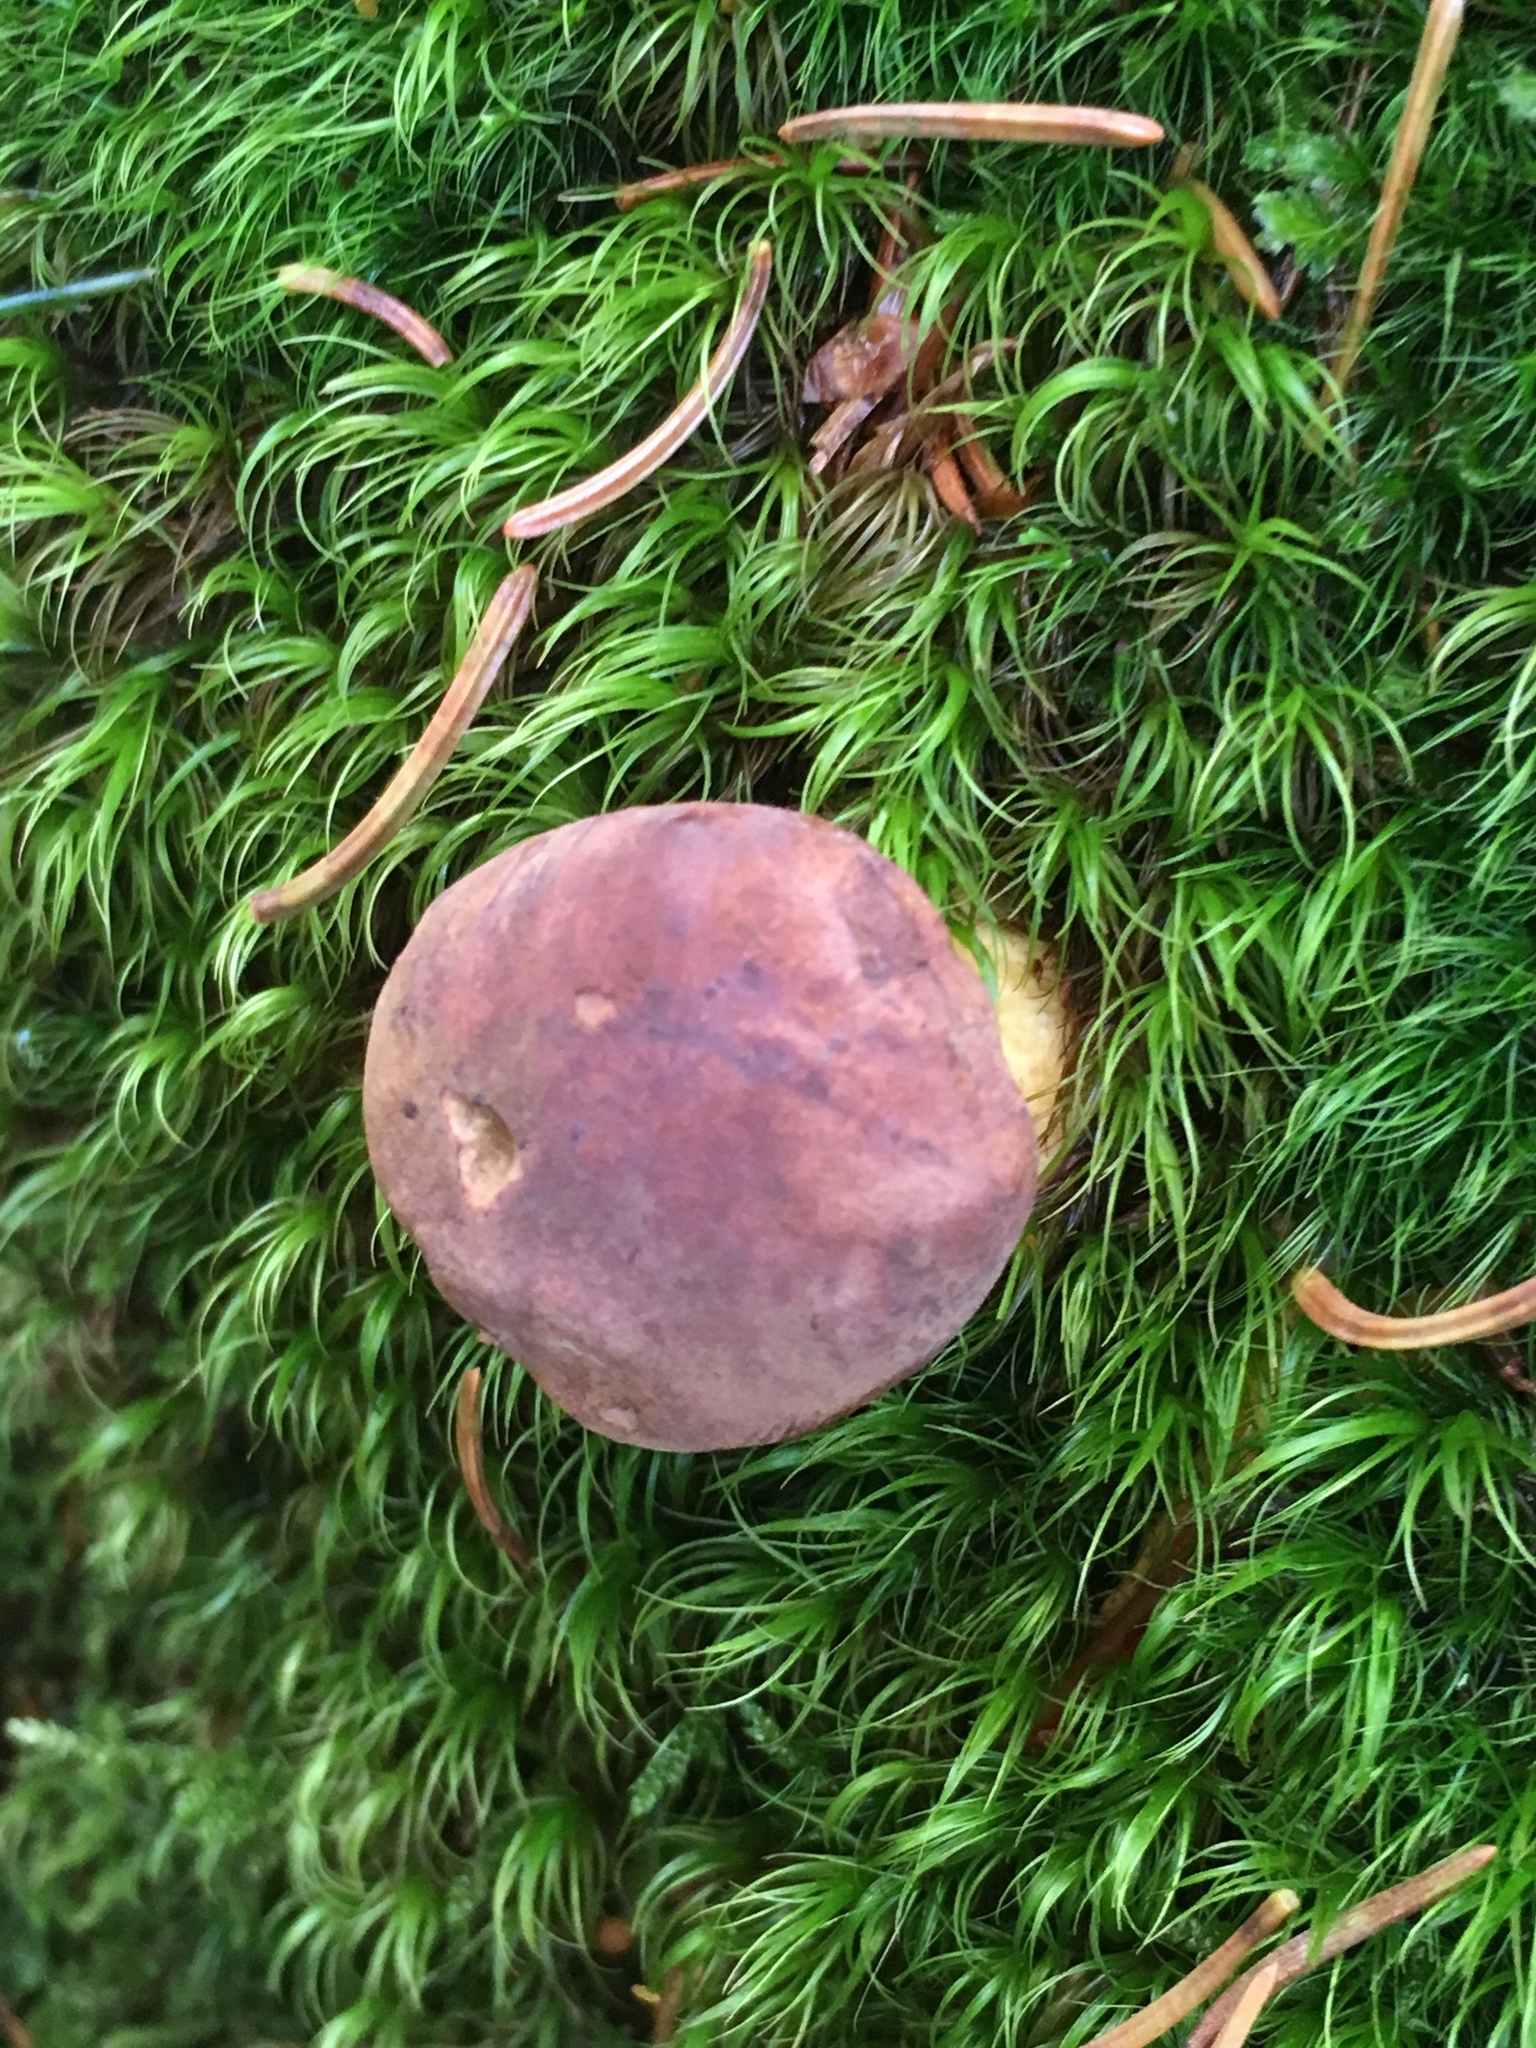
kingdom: Fungi
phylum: Basidiomycota
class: Agaricomycetes
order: Boletales
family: Boletaceae
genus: Boletus
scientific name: Boletus edulis
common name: Cep
